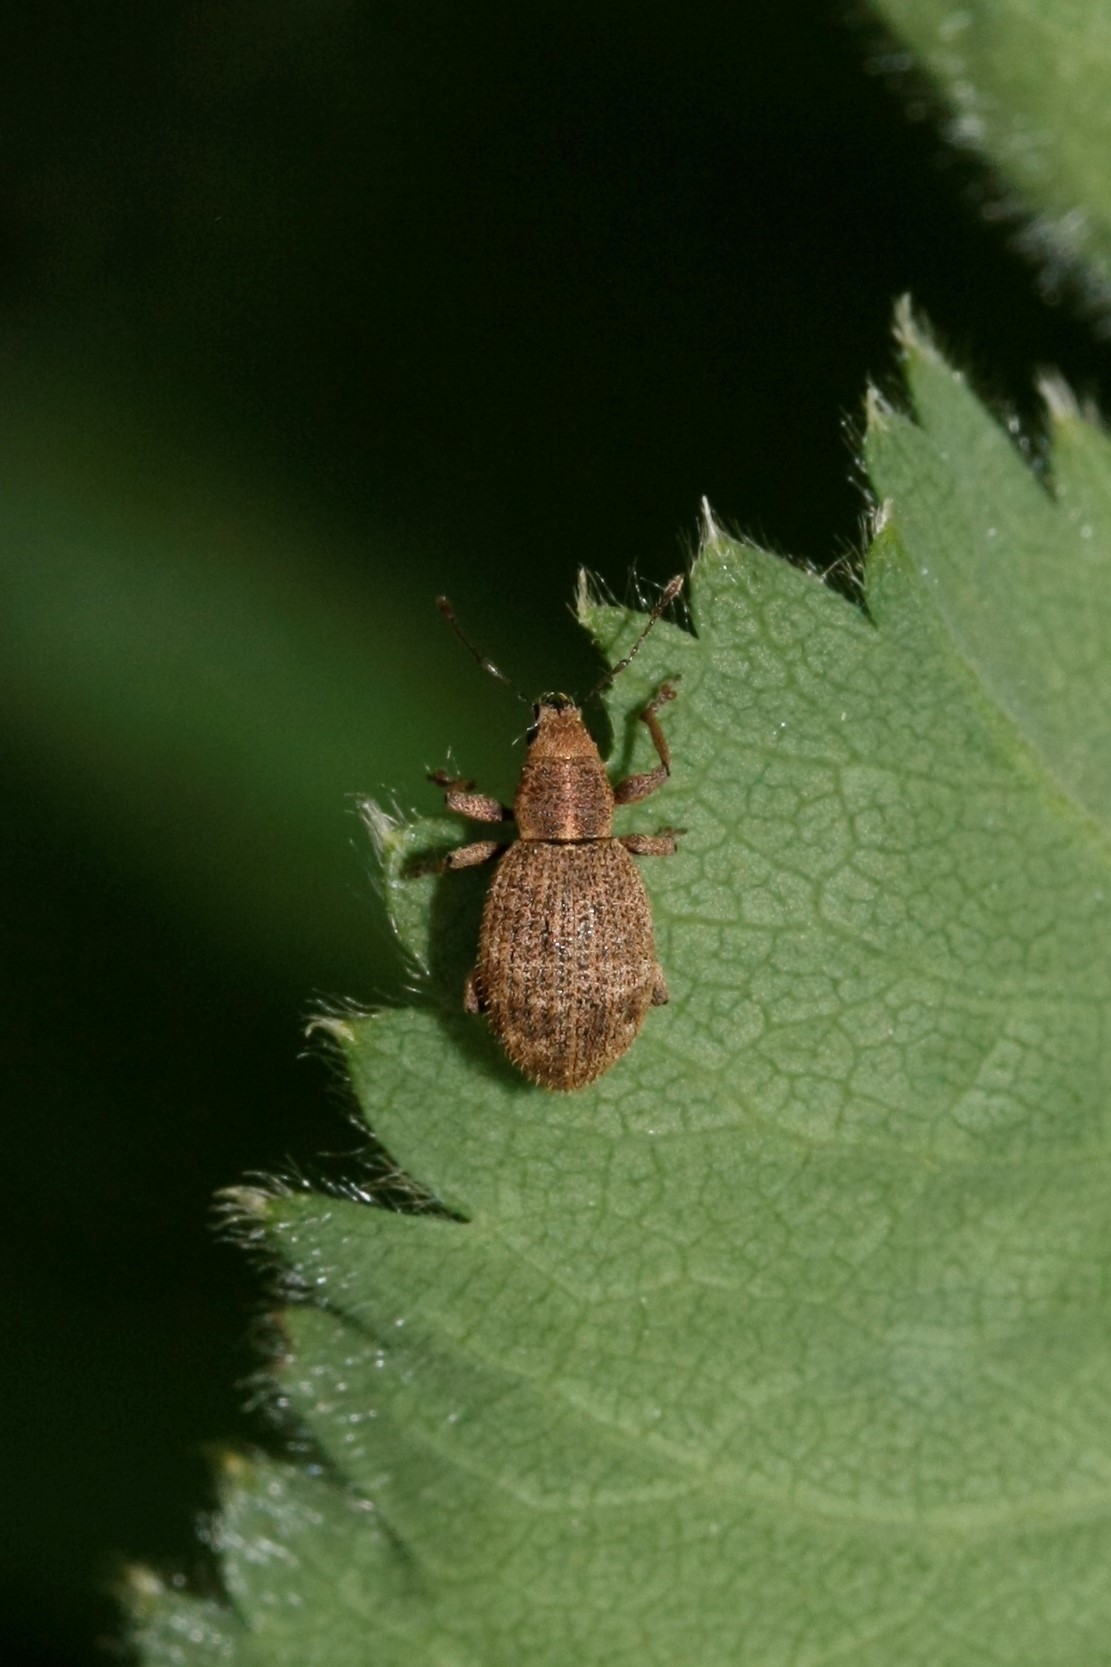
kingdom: Animalia
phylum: Arthropoda
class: Insecta
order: Coleoptera
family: Curculionidae
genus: Sciaphilus
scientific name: Sciaphilus asperatus
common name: Weevil
